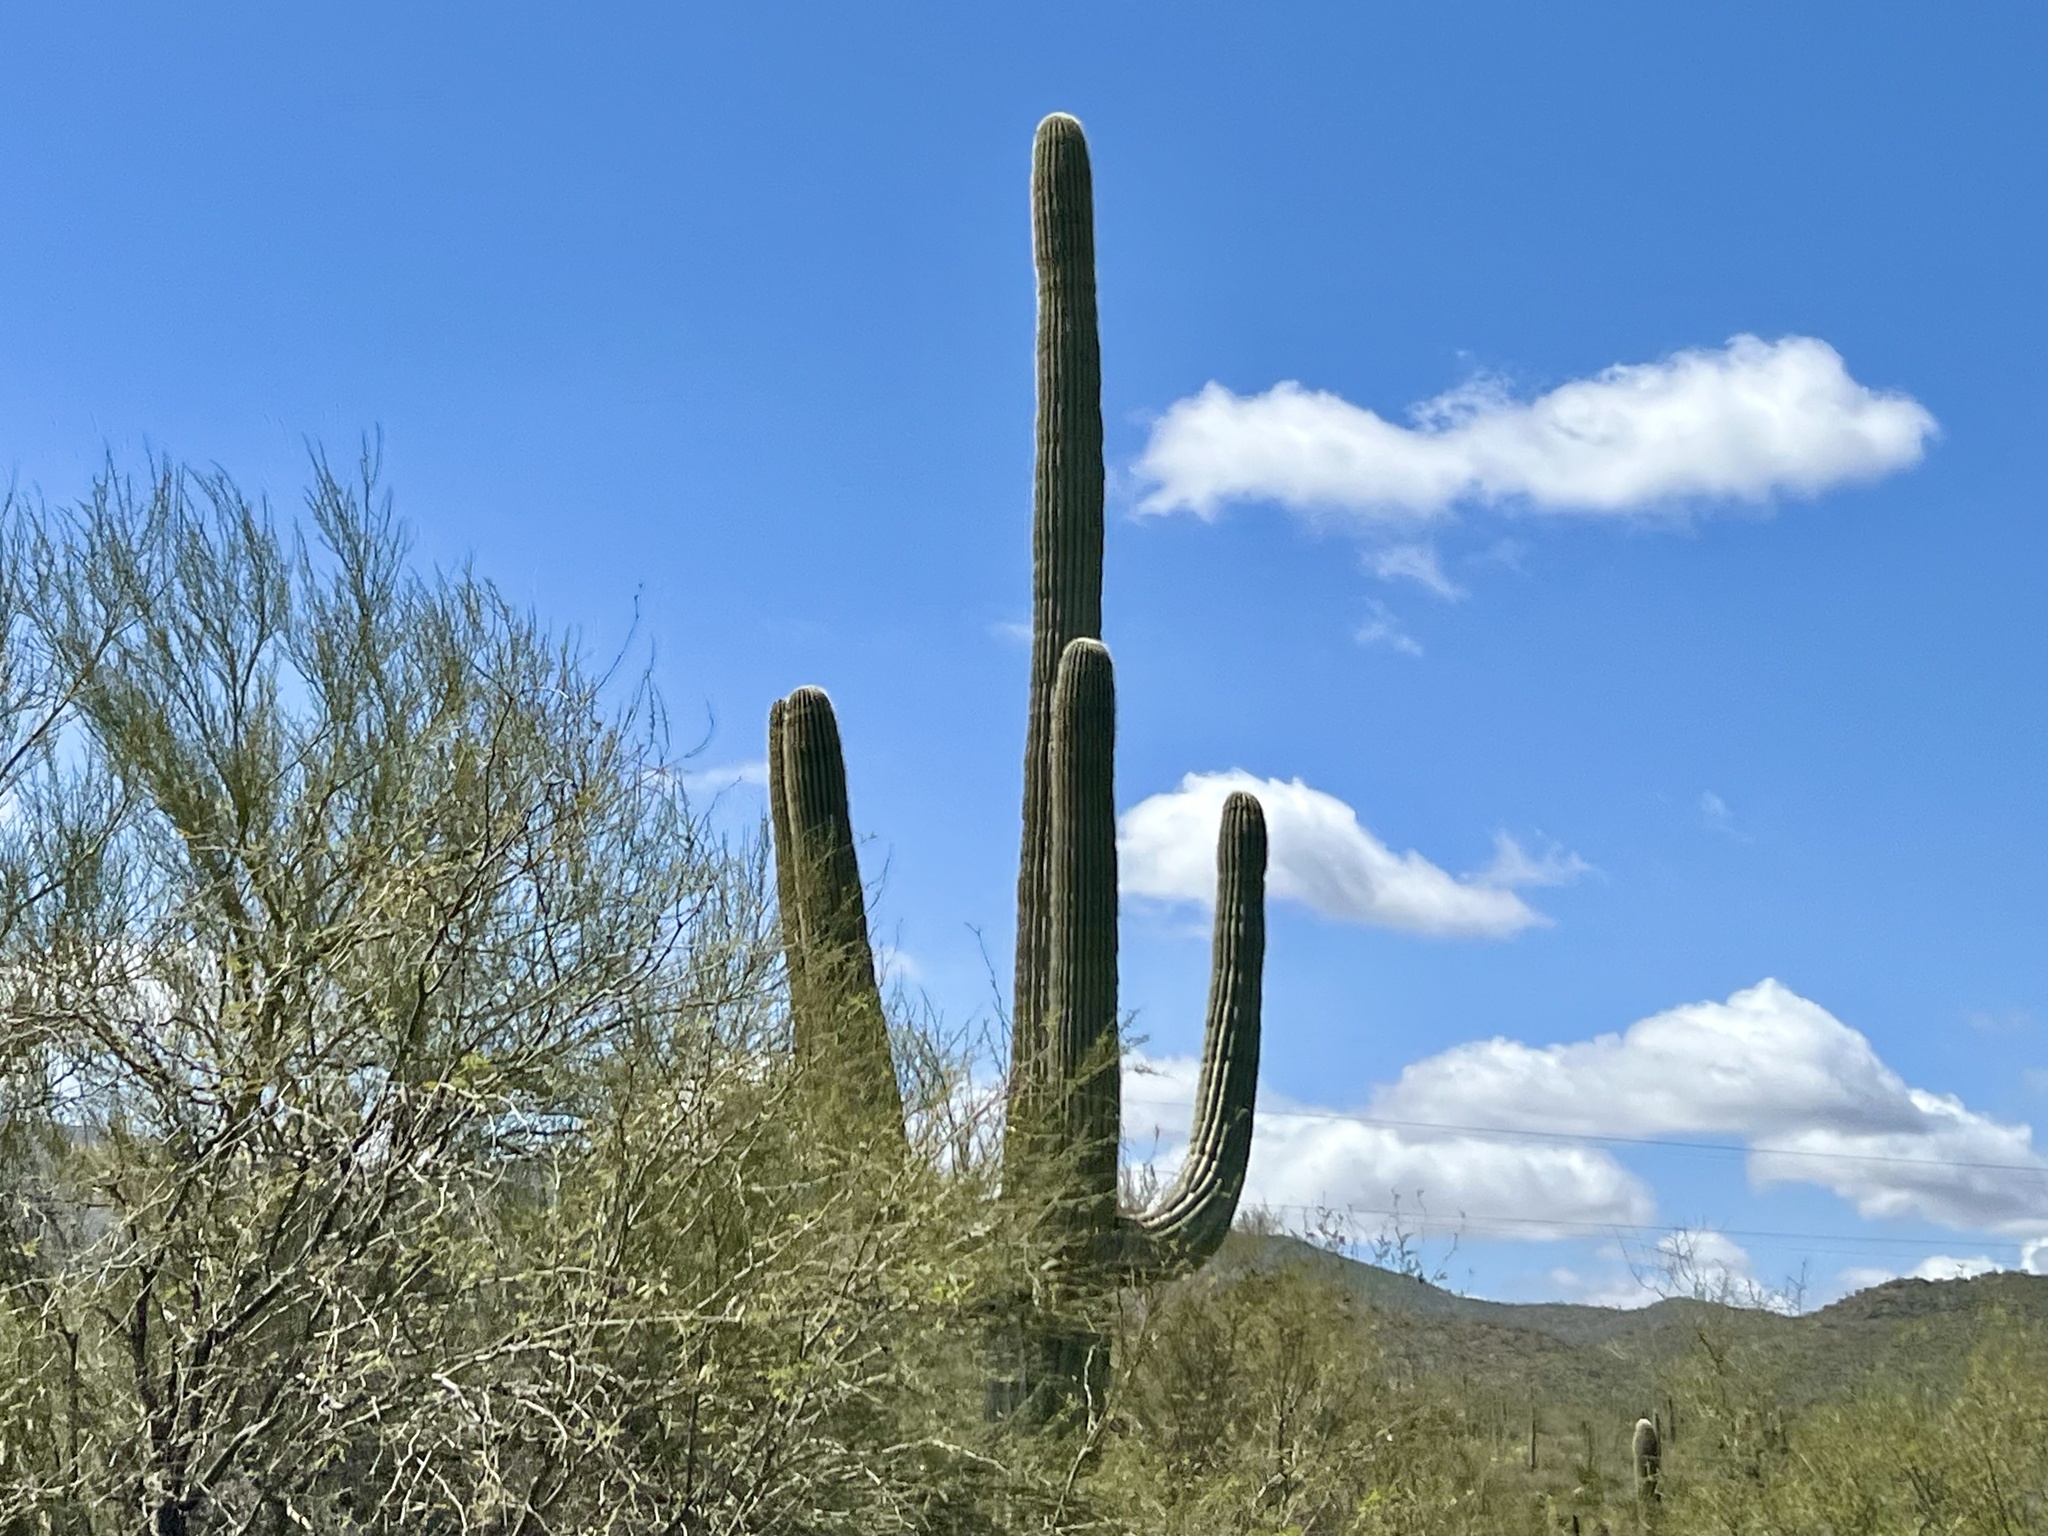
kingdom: Plantae
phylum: Tracheophyta
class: Magnoliopsida
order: Caryophyllales
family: Cactaceae
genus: Carnegiea
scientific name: Carnegiea gigantea
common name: Saguaro
